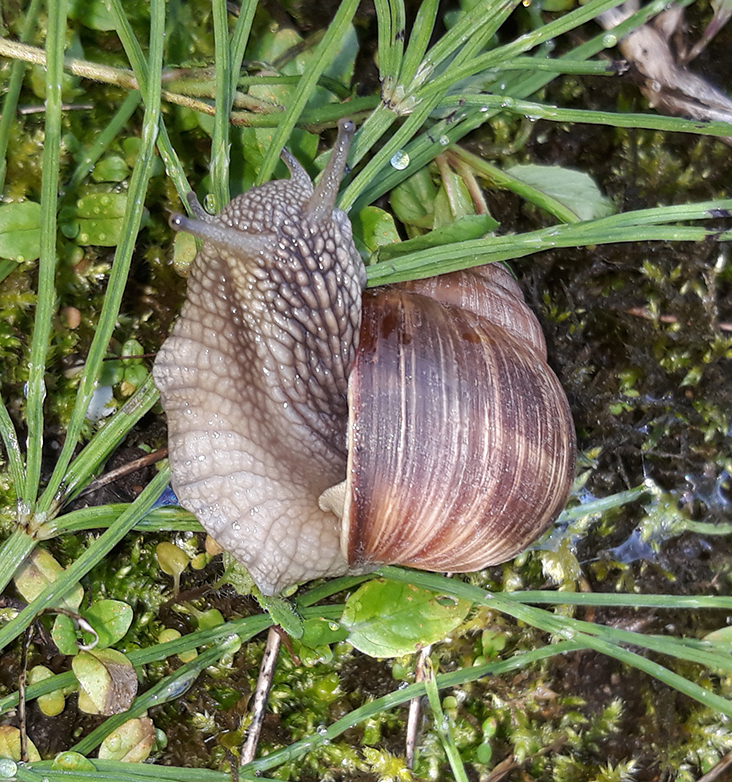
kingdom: Animalia
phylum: Mollusca
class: Gastropoda
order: Stylommatophora
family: Helicidae
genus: Helix
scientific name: Helix pomatia
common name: Roman snail
